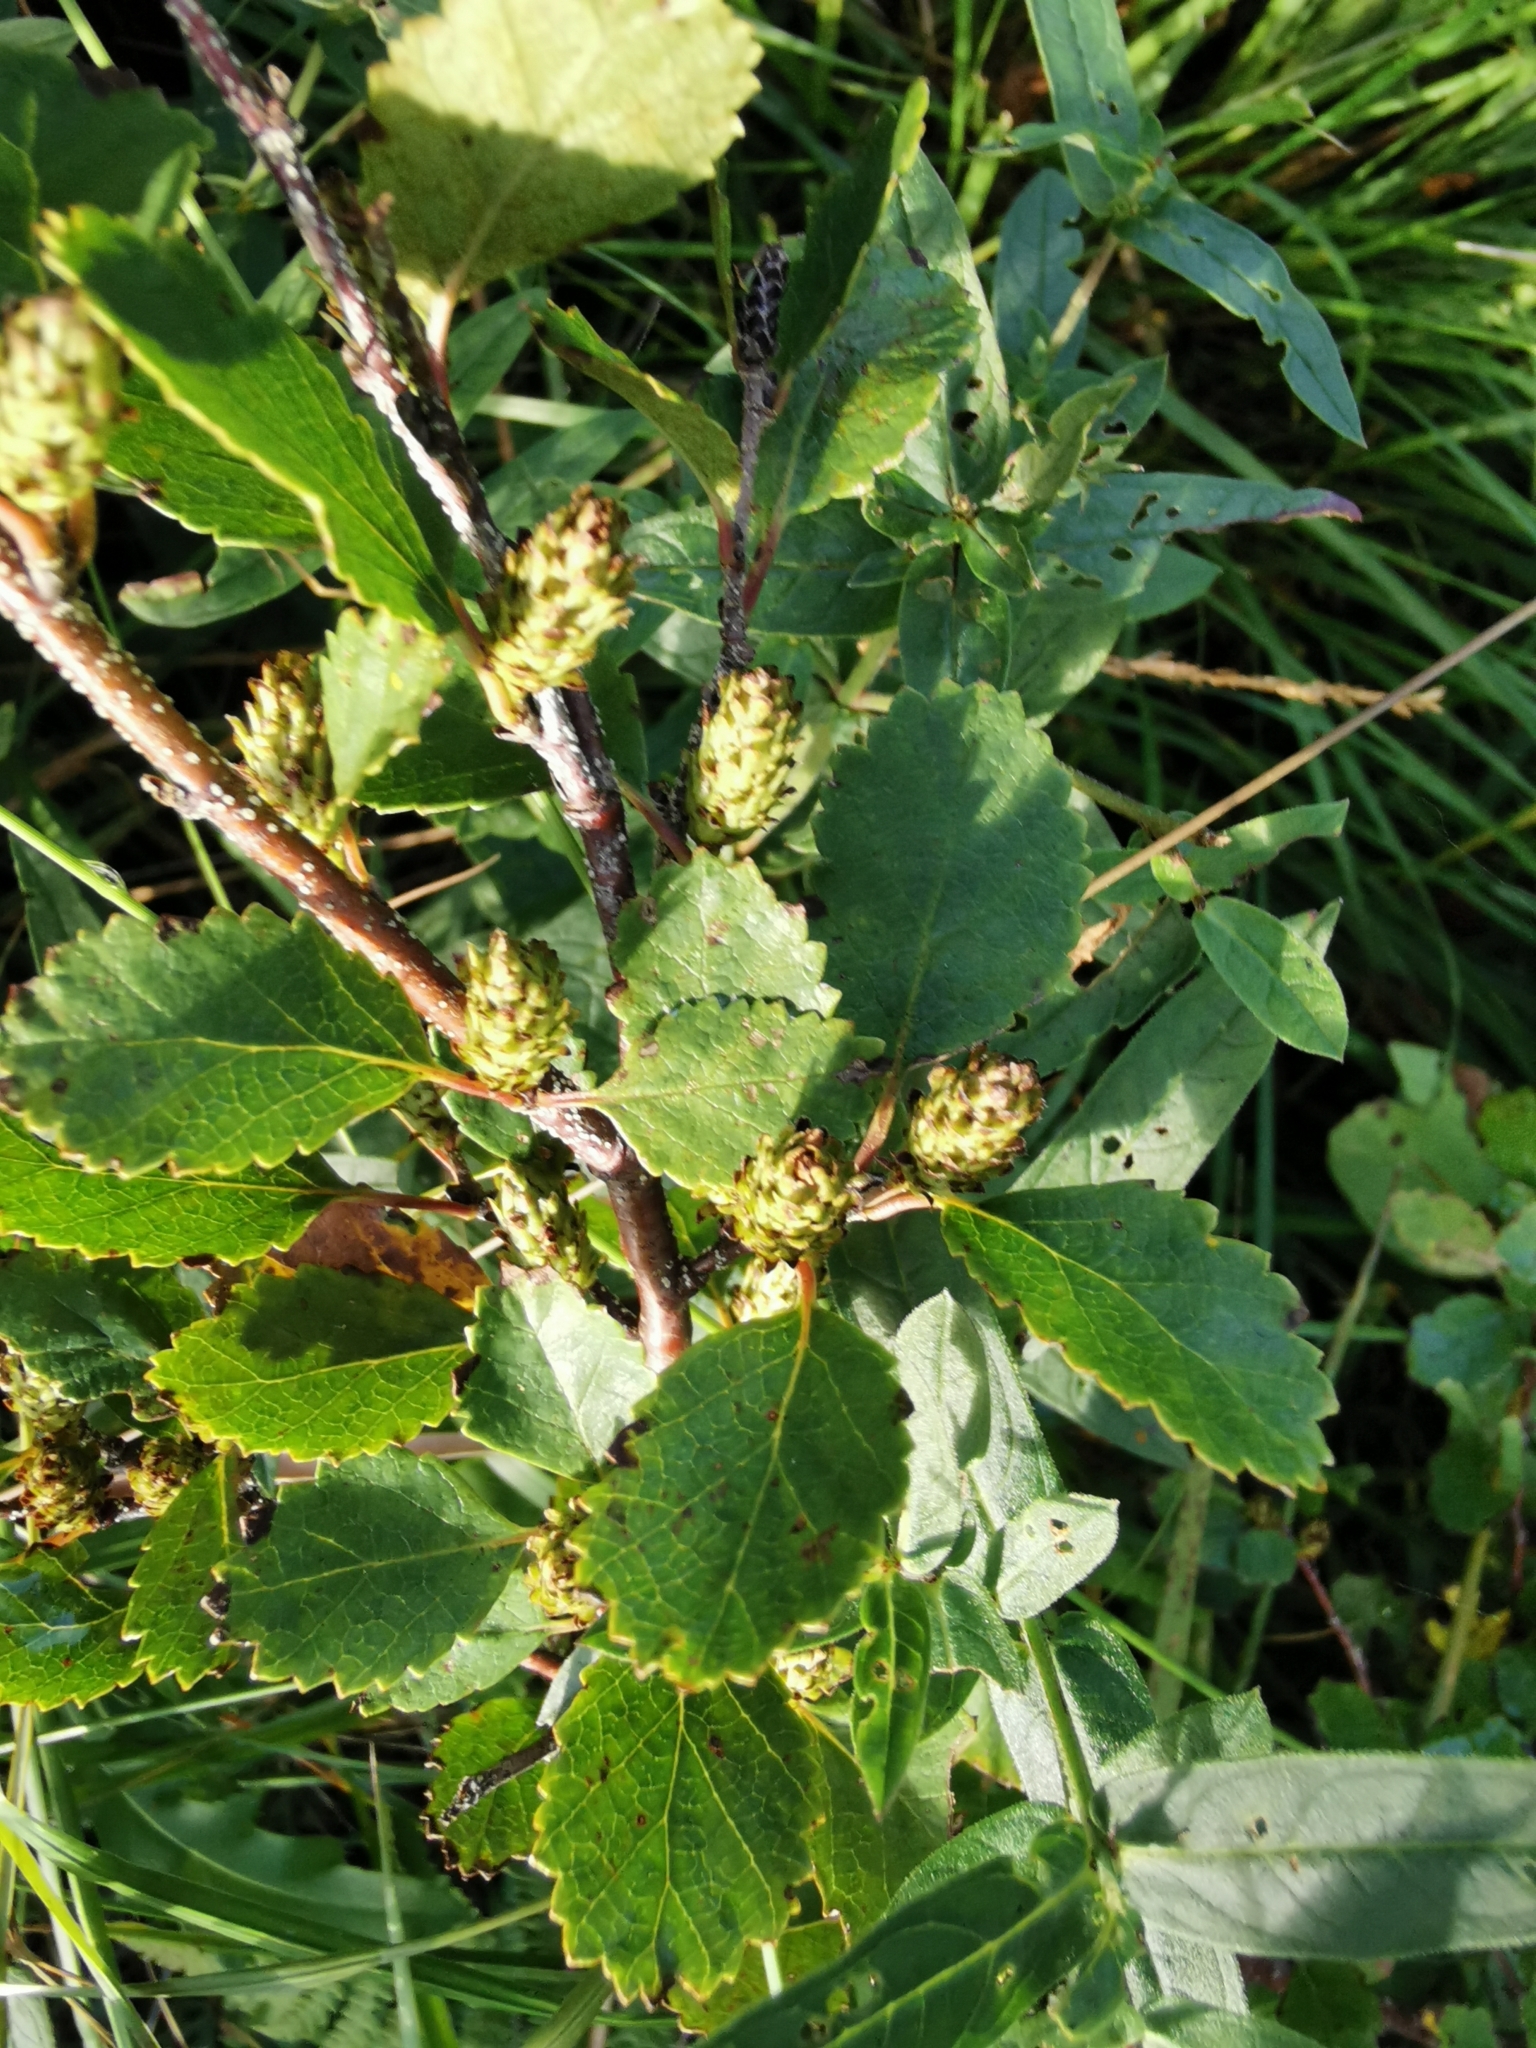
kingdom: Plantae
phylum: Tracheophyta
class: Magnoliopsida
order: Fagales
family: Betulaceae
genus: Betula
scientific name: Betula humilis
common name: Shrubby birch
